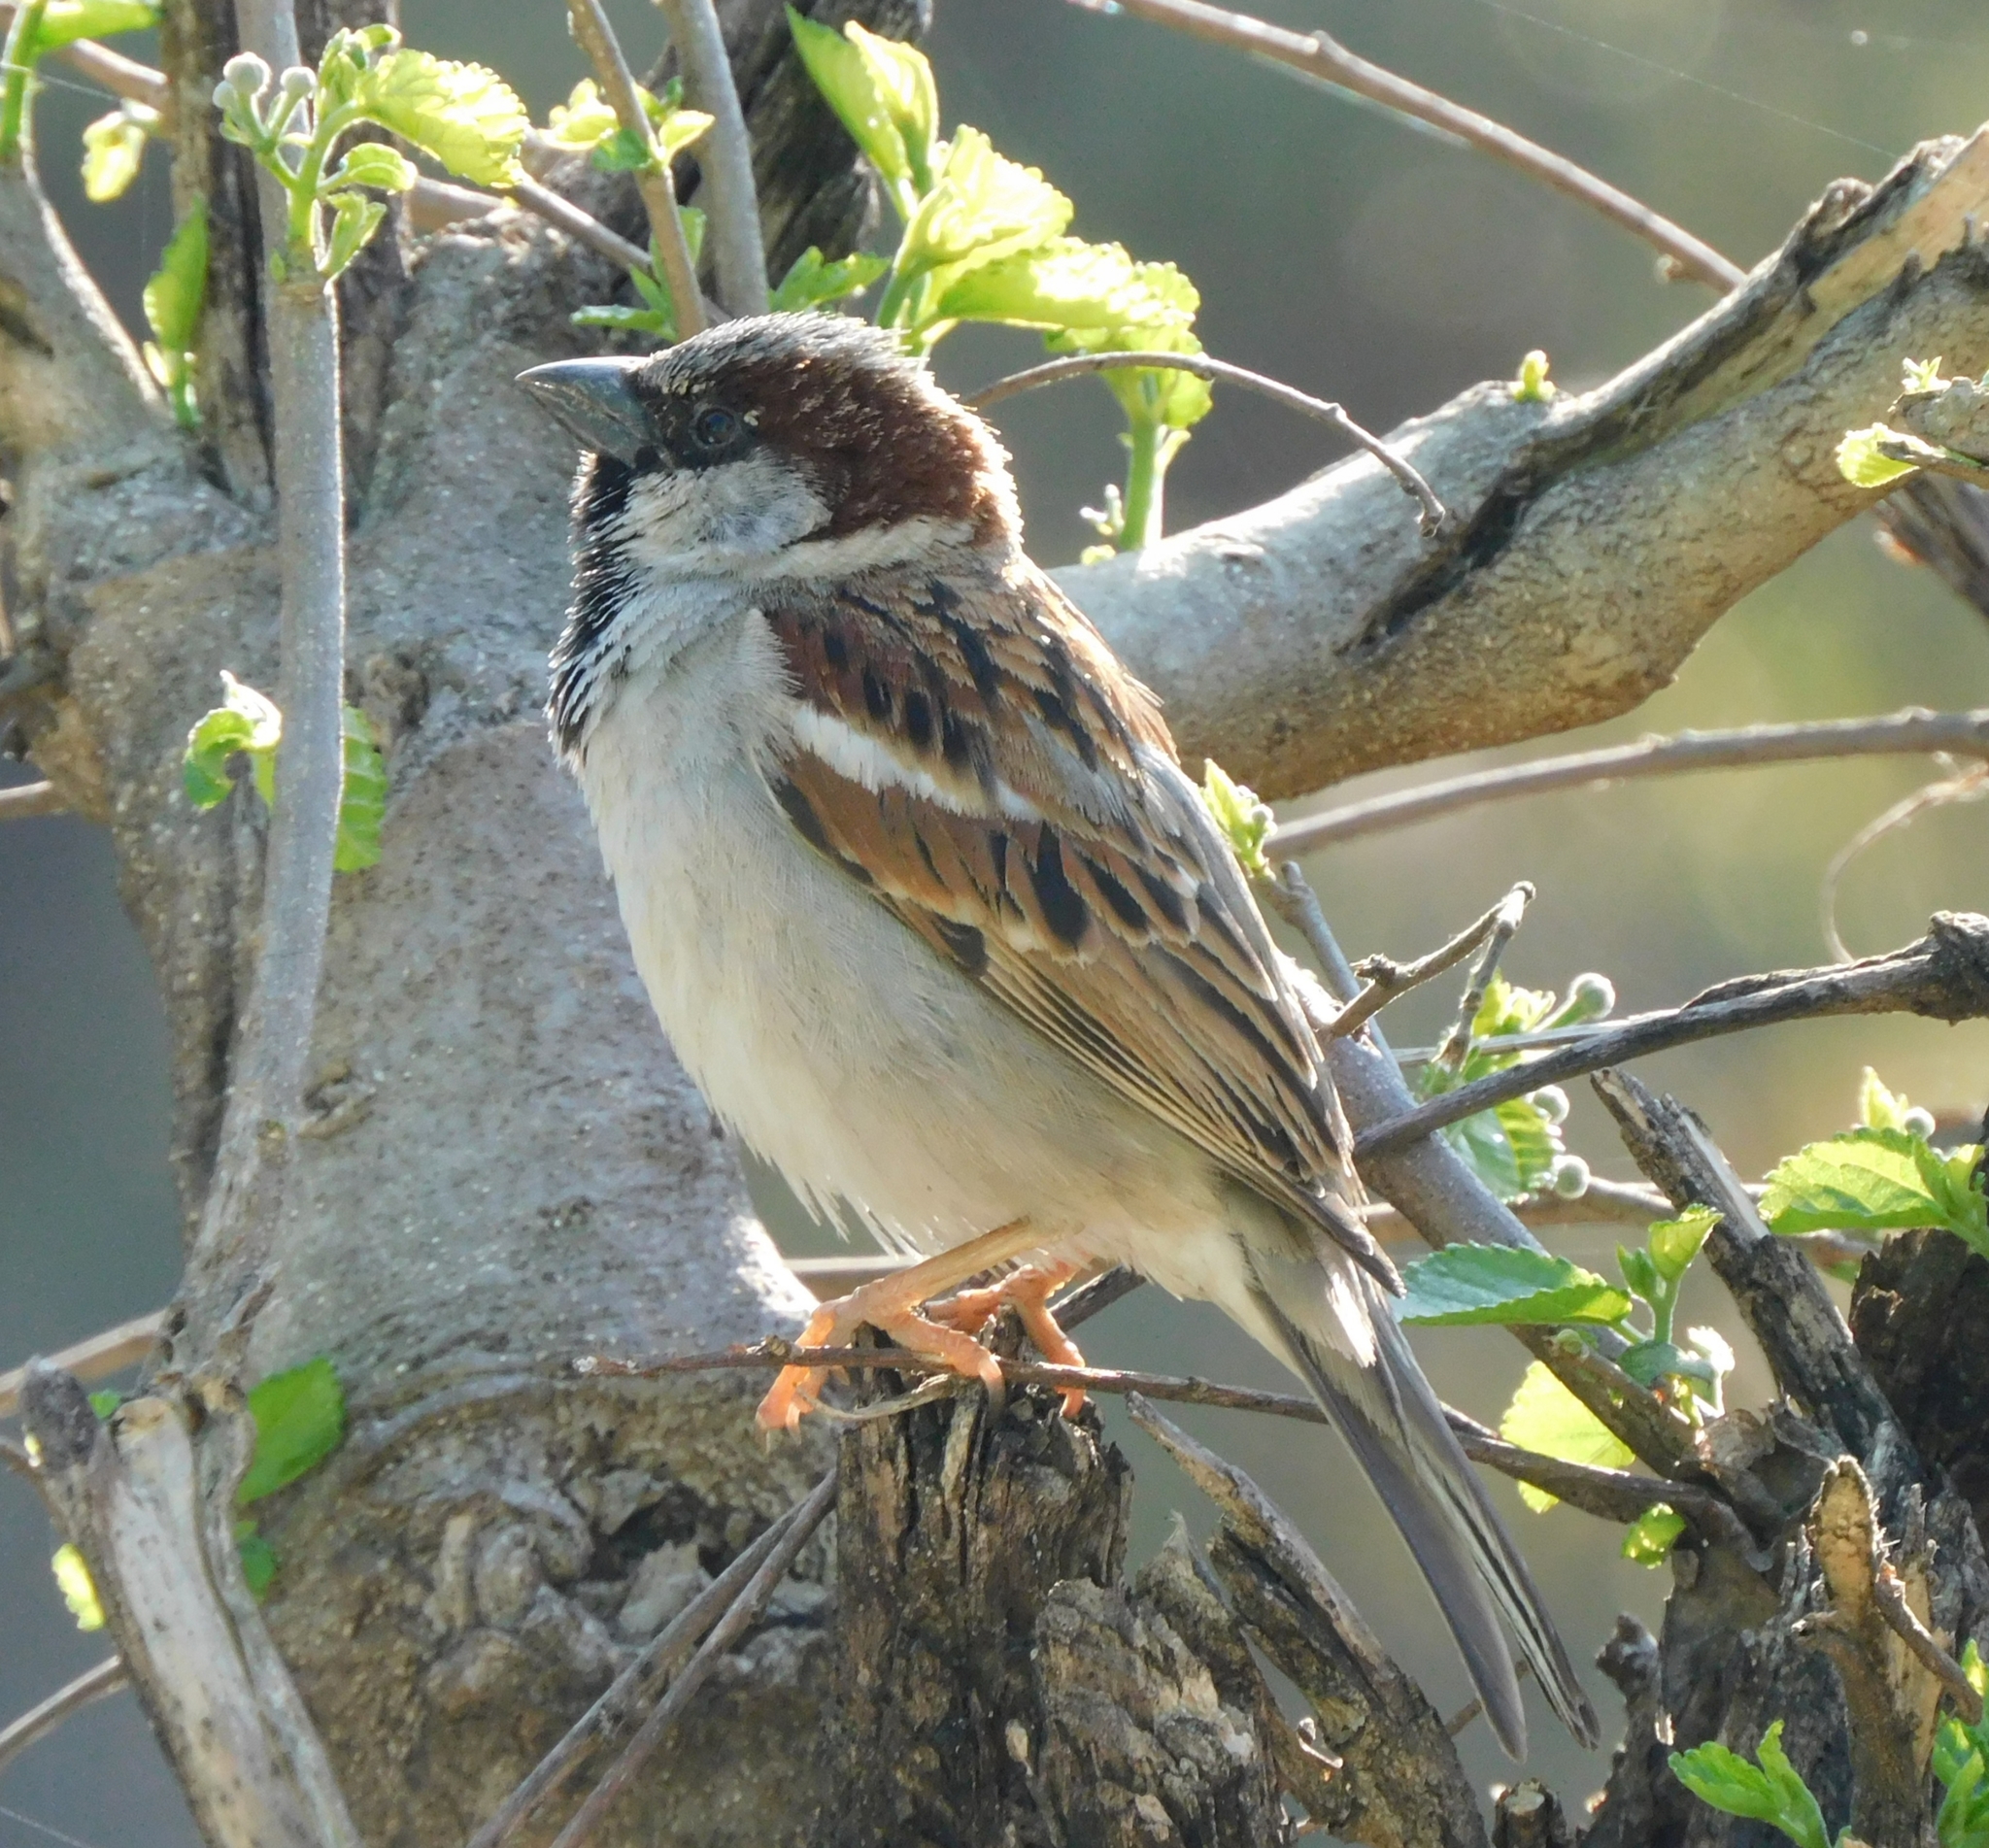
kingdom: Animalia
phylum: Chordata
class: Aves
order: Passeriformes
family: Passeridae
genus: Passer
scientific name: Passer domesticus
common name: House sparrow
